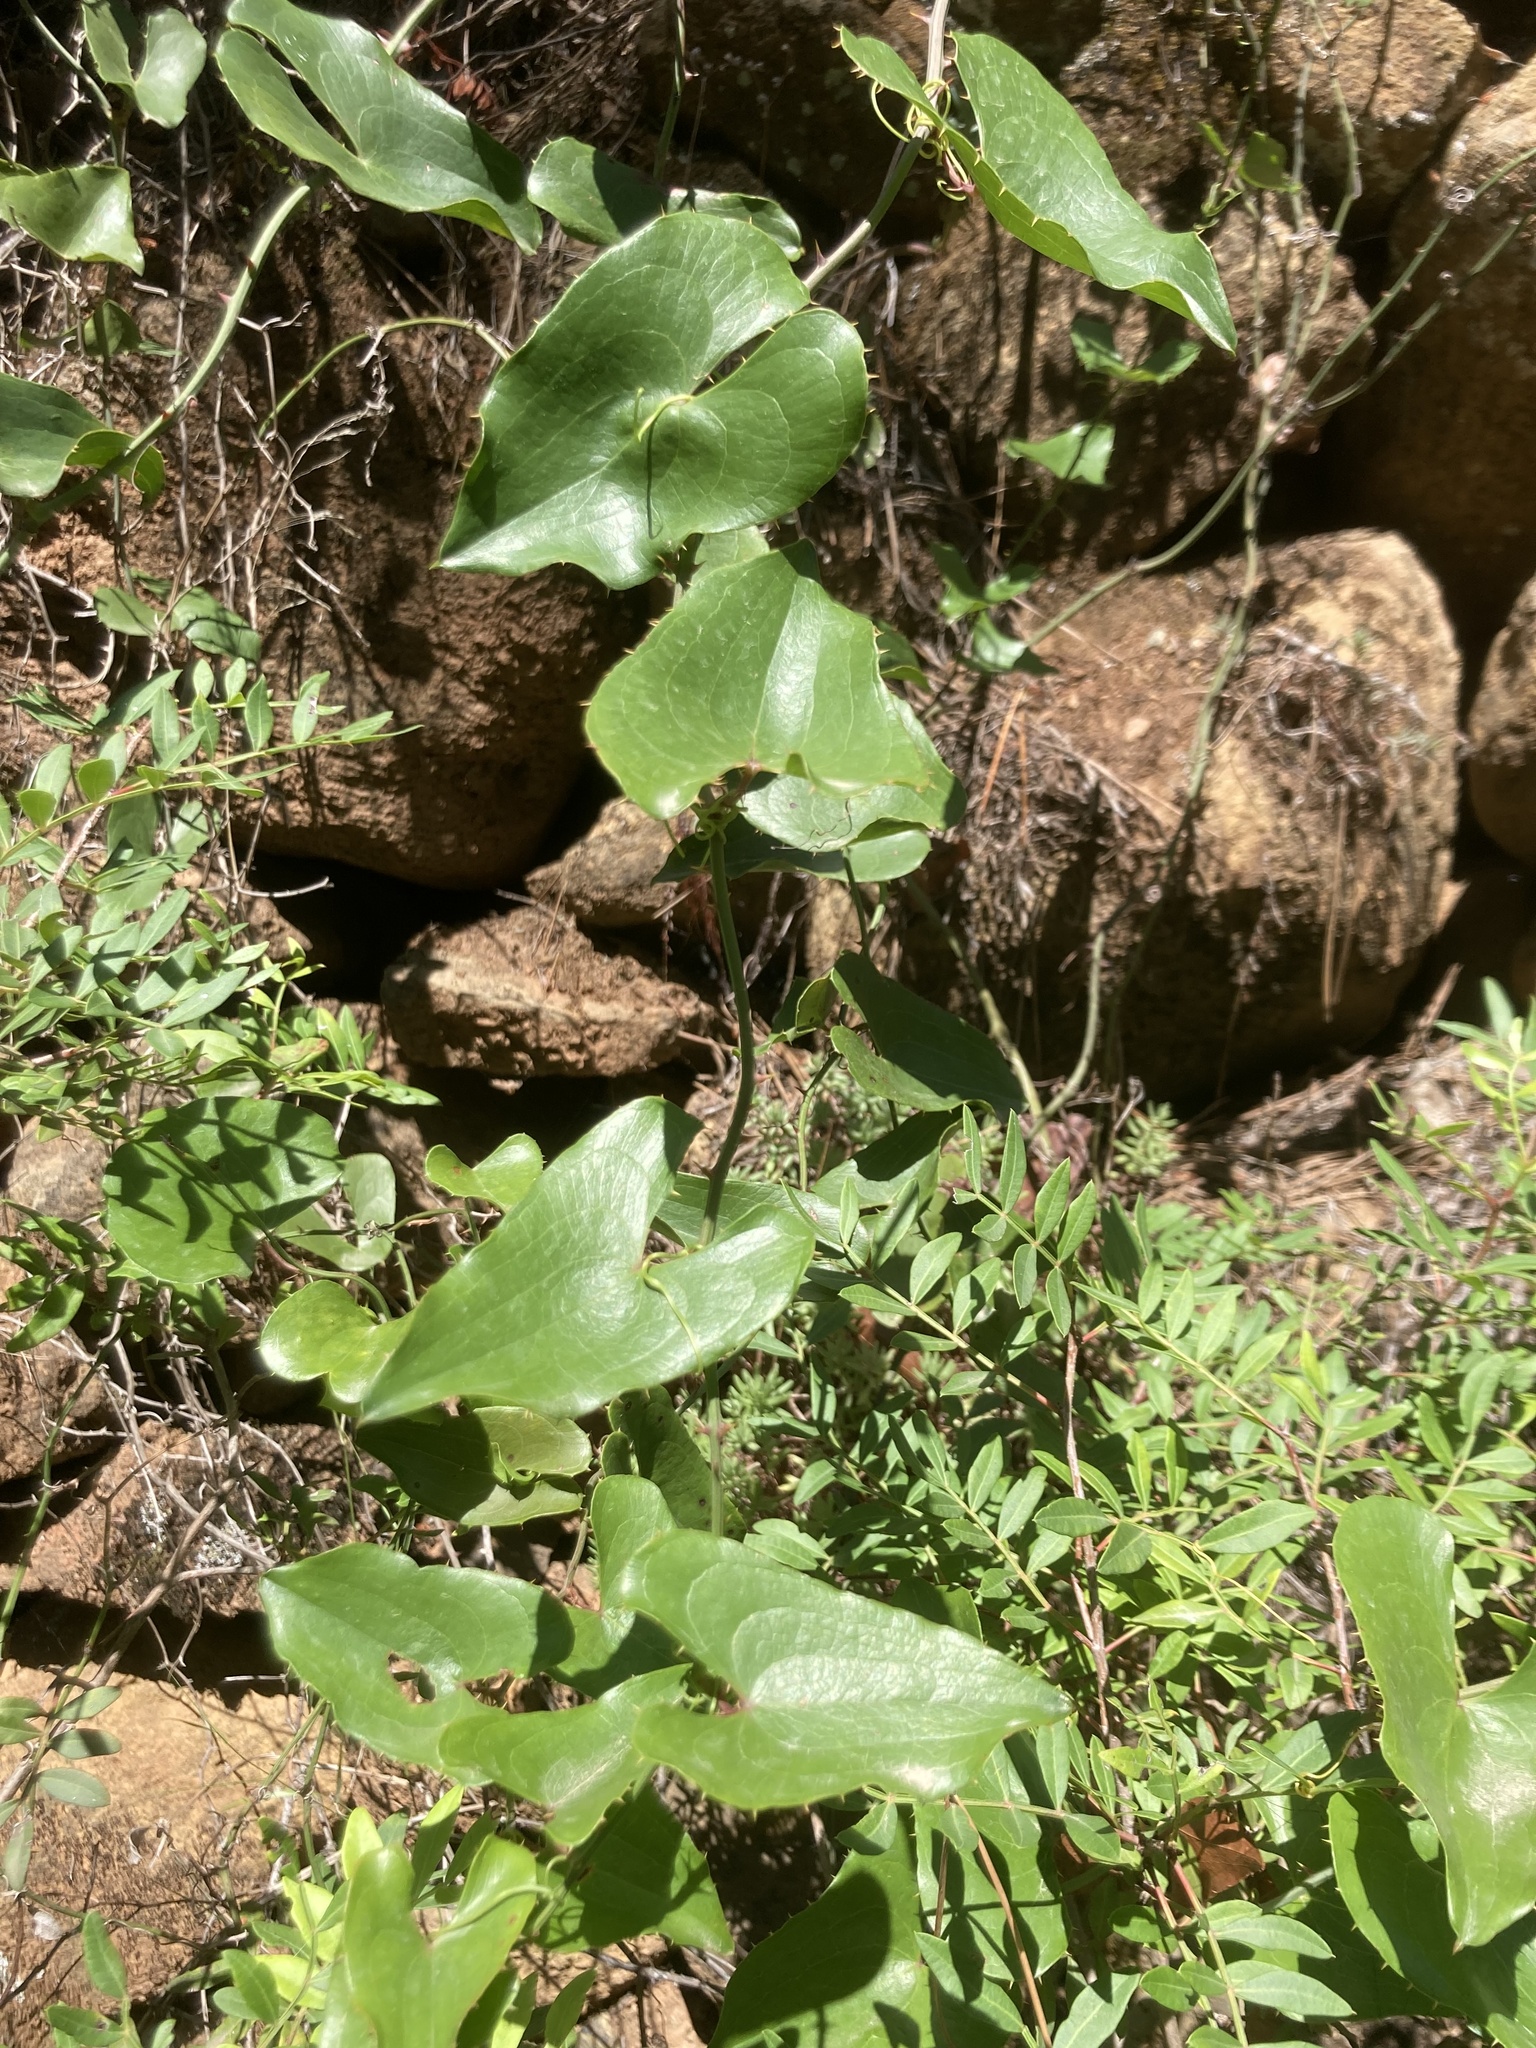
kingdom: Plantae
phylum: Tracheophyta
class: Liliopsida
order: Liliales
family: Smilacaceae
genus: Smilax
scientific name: Smilax aspera
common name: Common smilax
